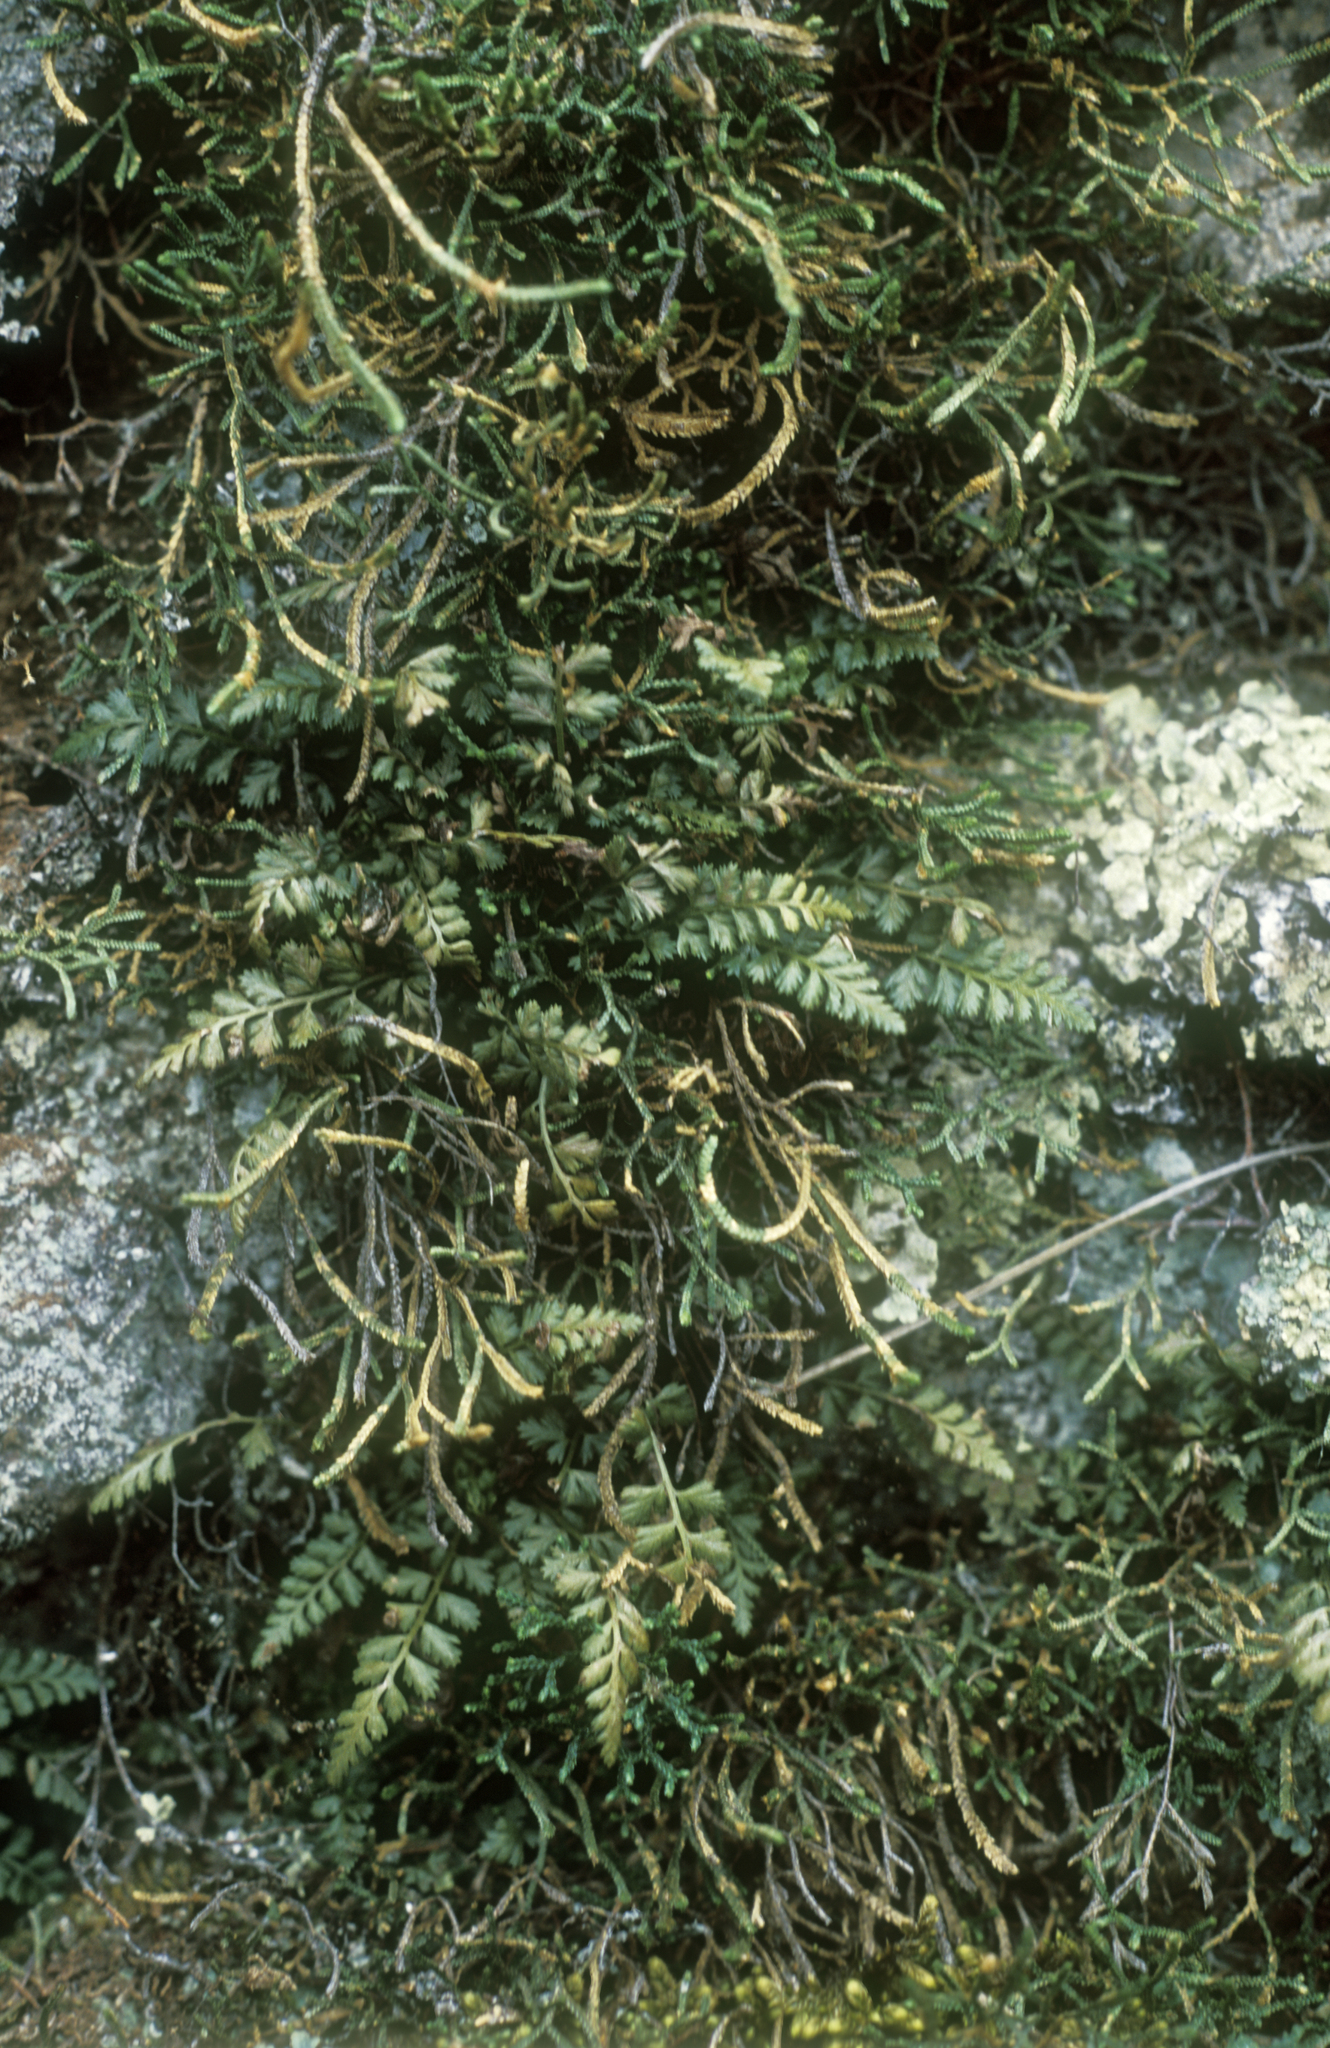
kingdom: Plantae
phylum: Tracheophyta
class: Lycopodiopsida
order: Selaginellales
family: Selaginellaceae
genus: Selaginella
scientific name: Selaginella sanguinolenta
